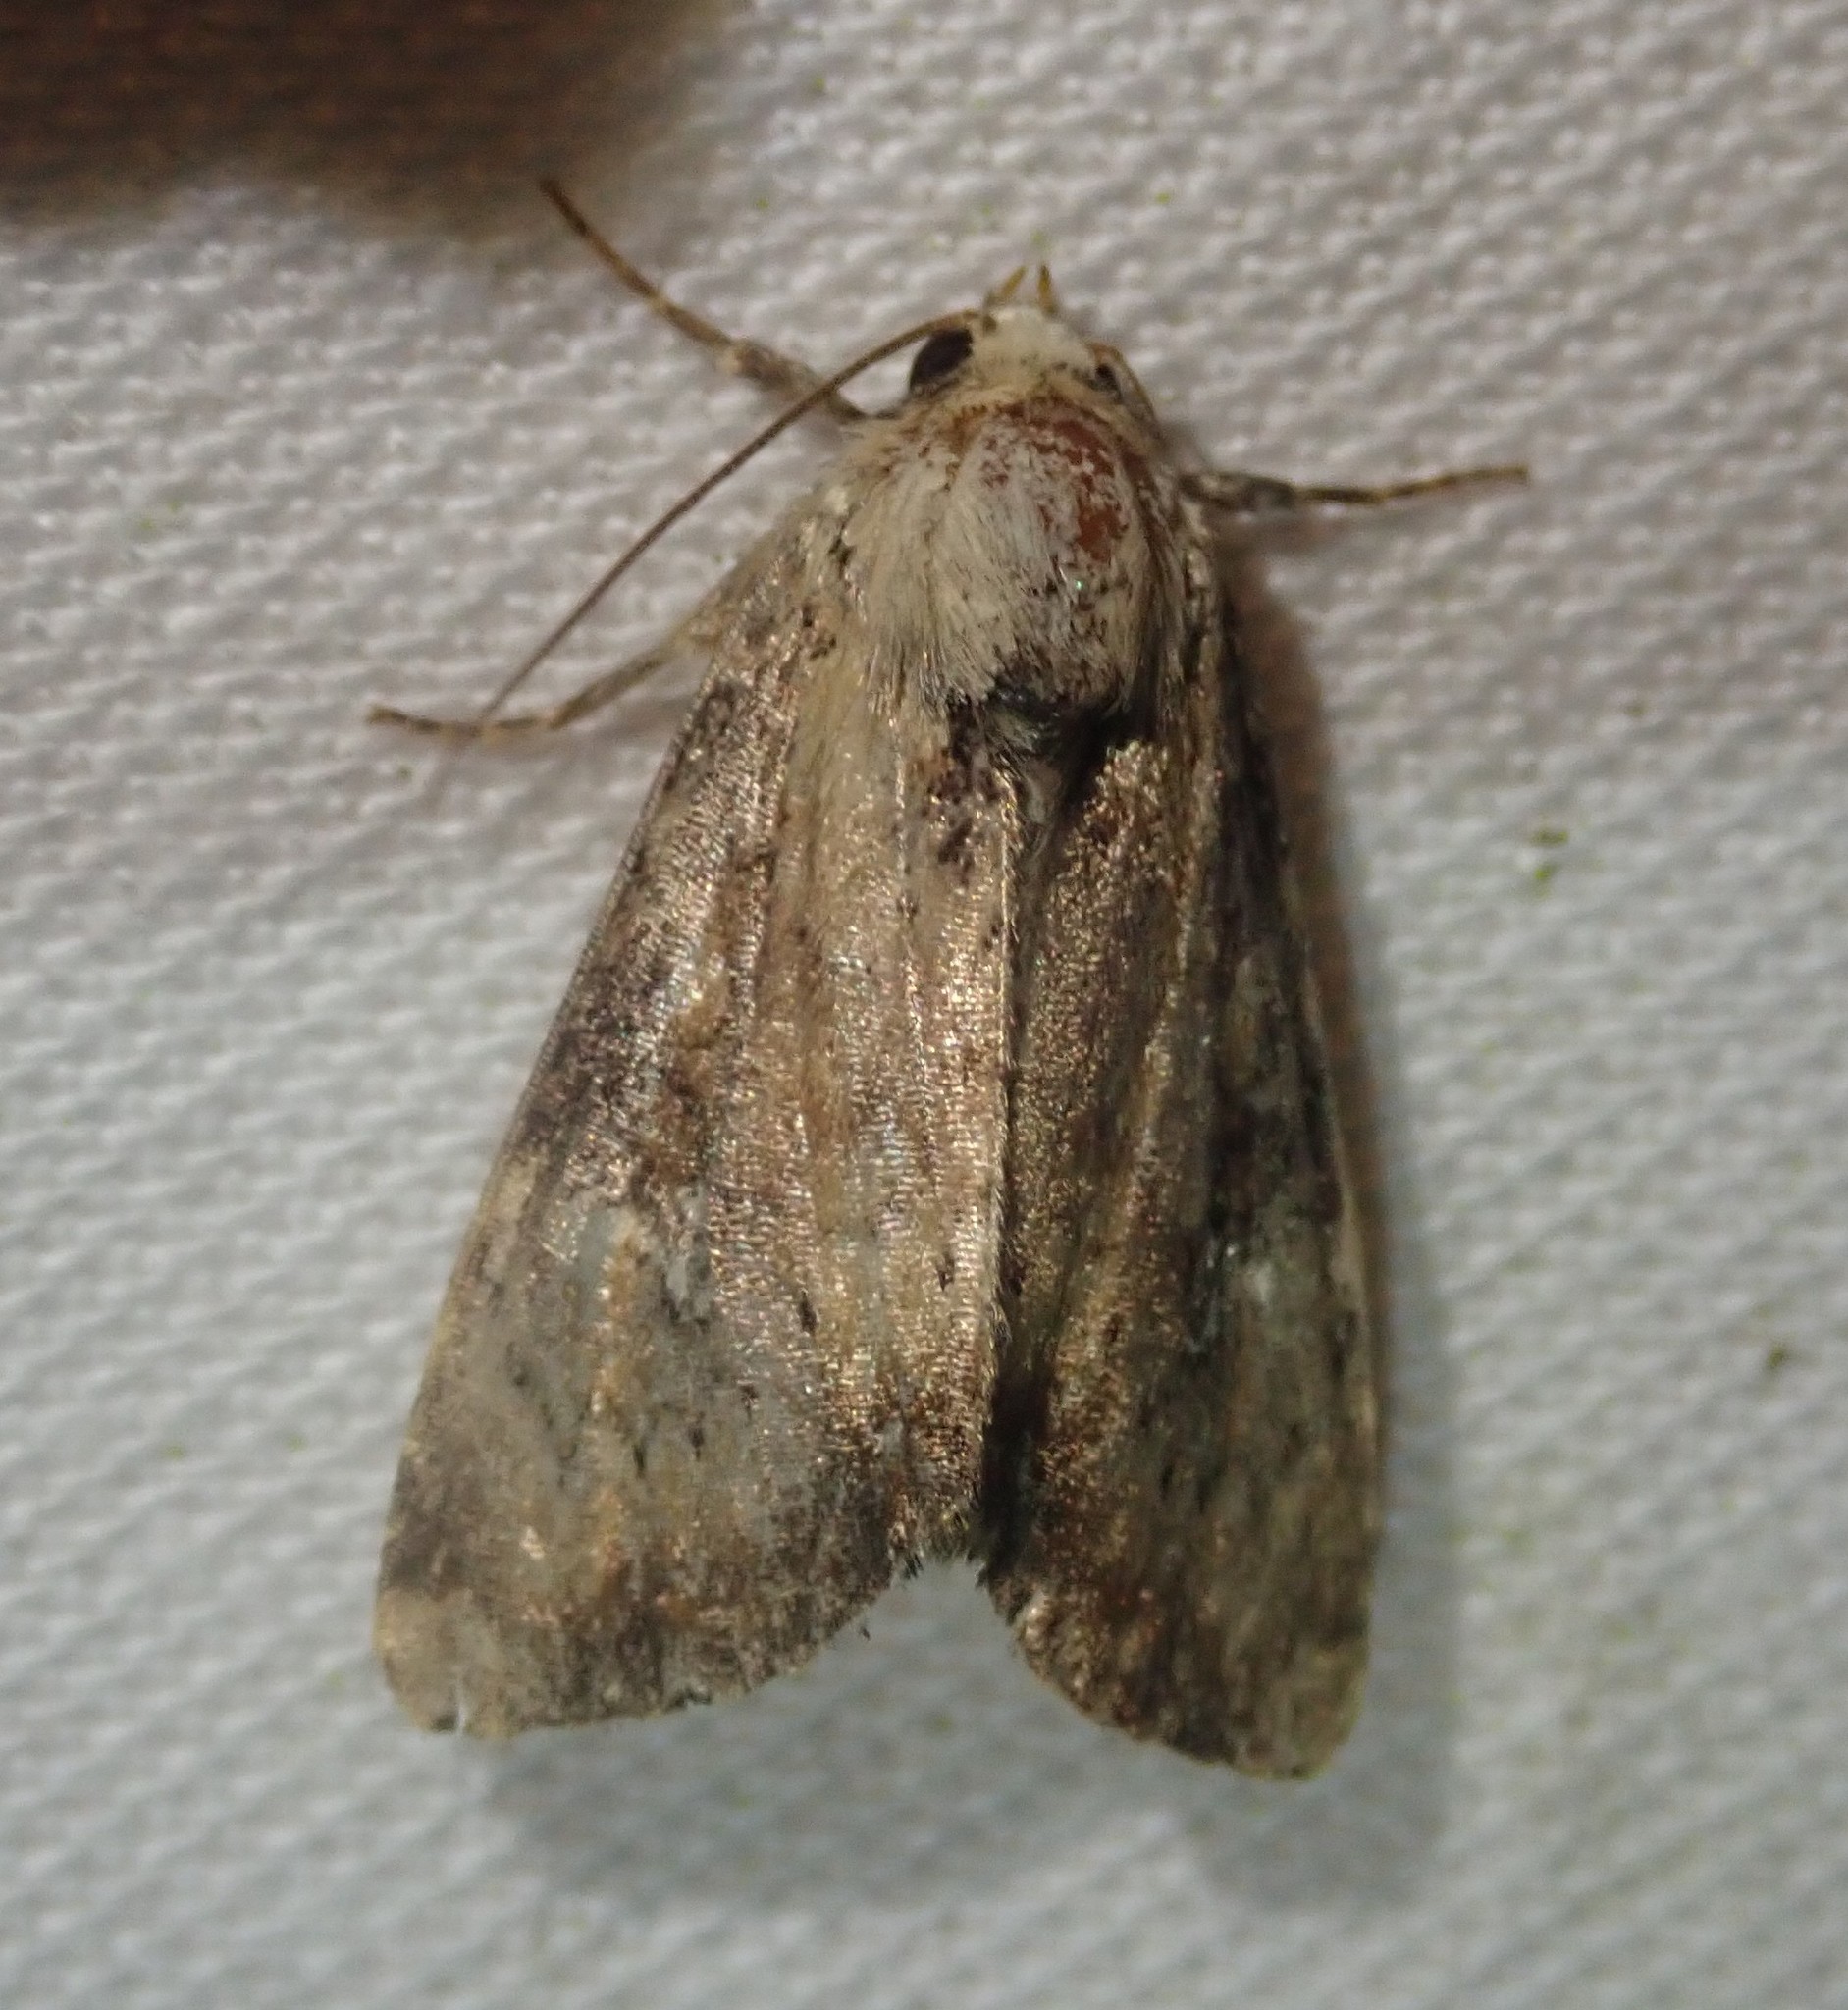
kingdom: Animalia
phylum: Arthropoda
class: Insecta
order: Lepidoptera
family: Noctuidae
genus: Loscopia
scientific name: Loscopia scolopacina
